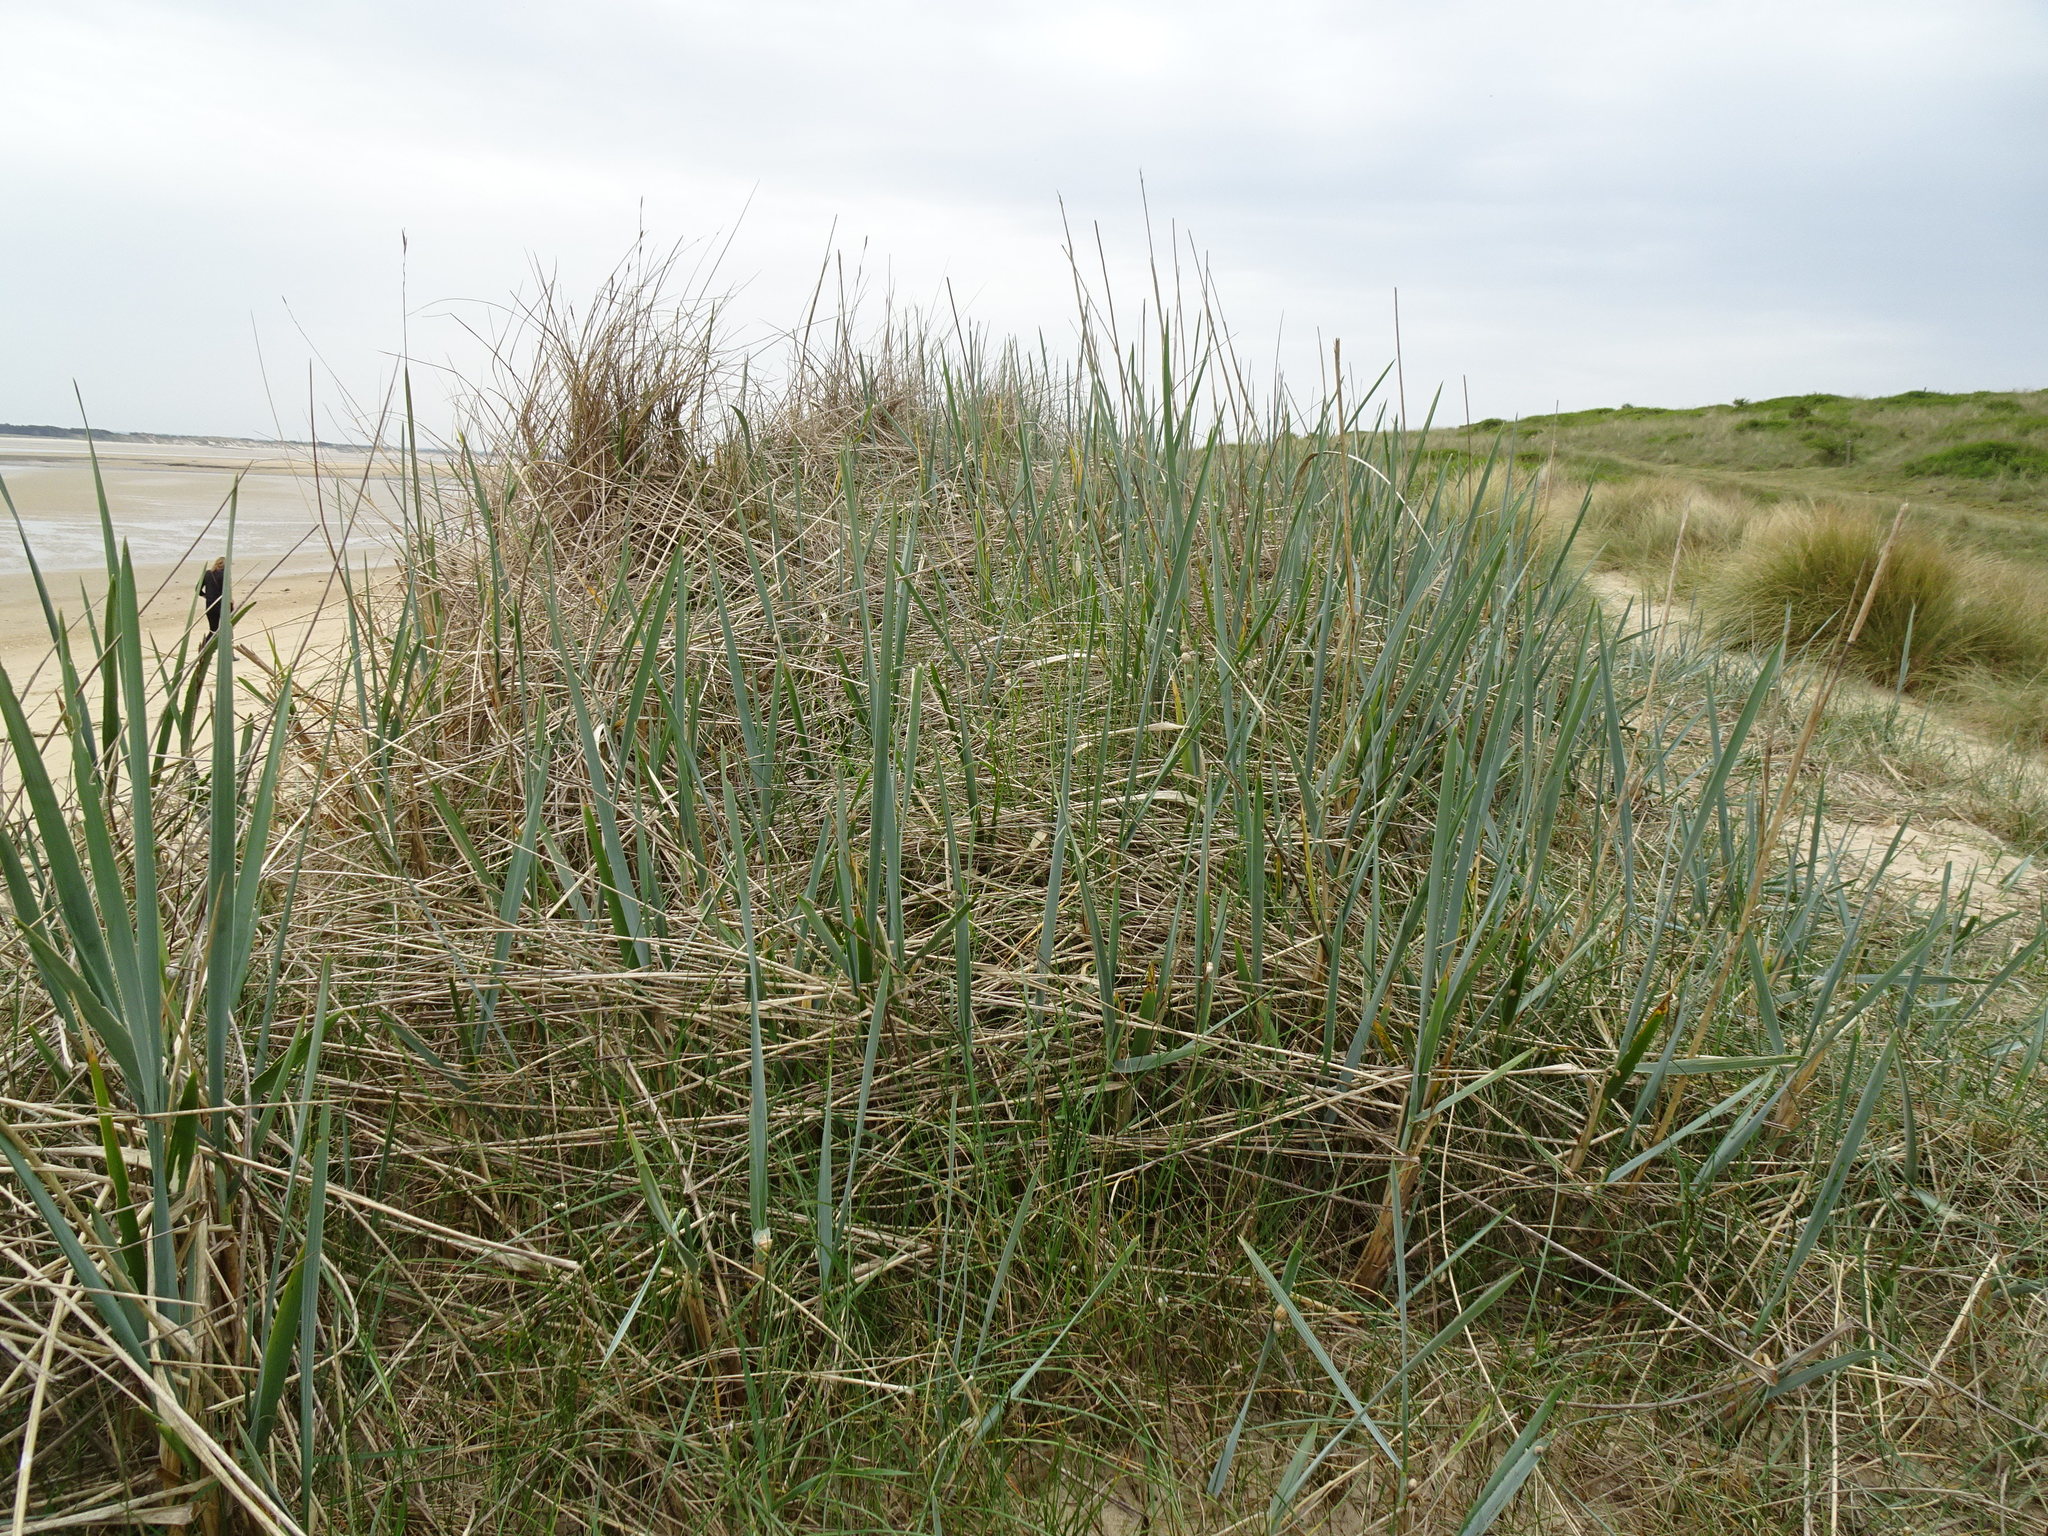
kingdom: Plantae
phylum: Tracheophyta
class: Liliopsida
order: Poales
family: Poaceae
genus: Leymus
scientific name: Leymus arenarius
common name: Lyme-grass
